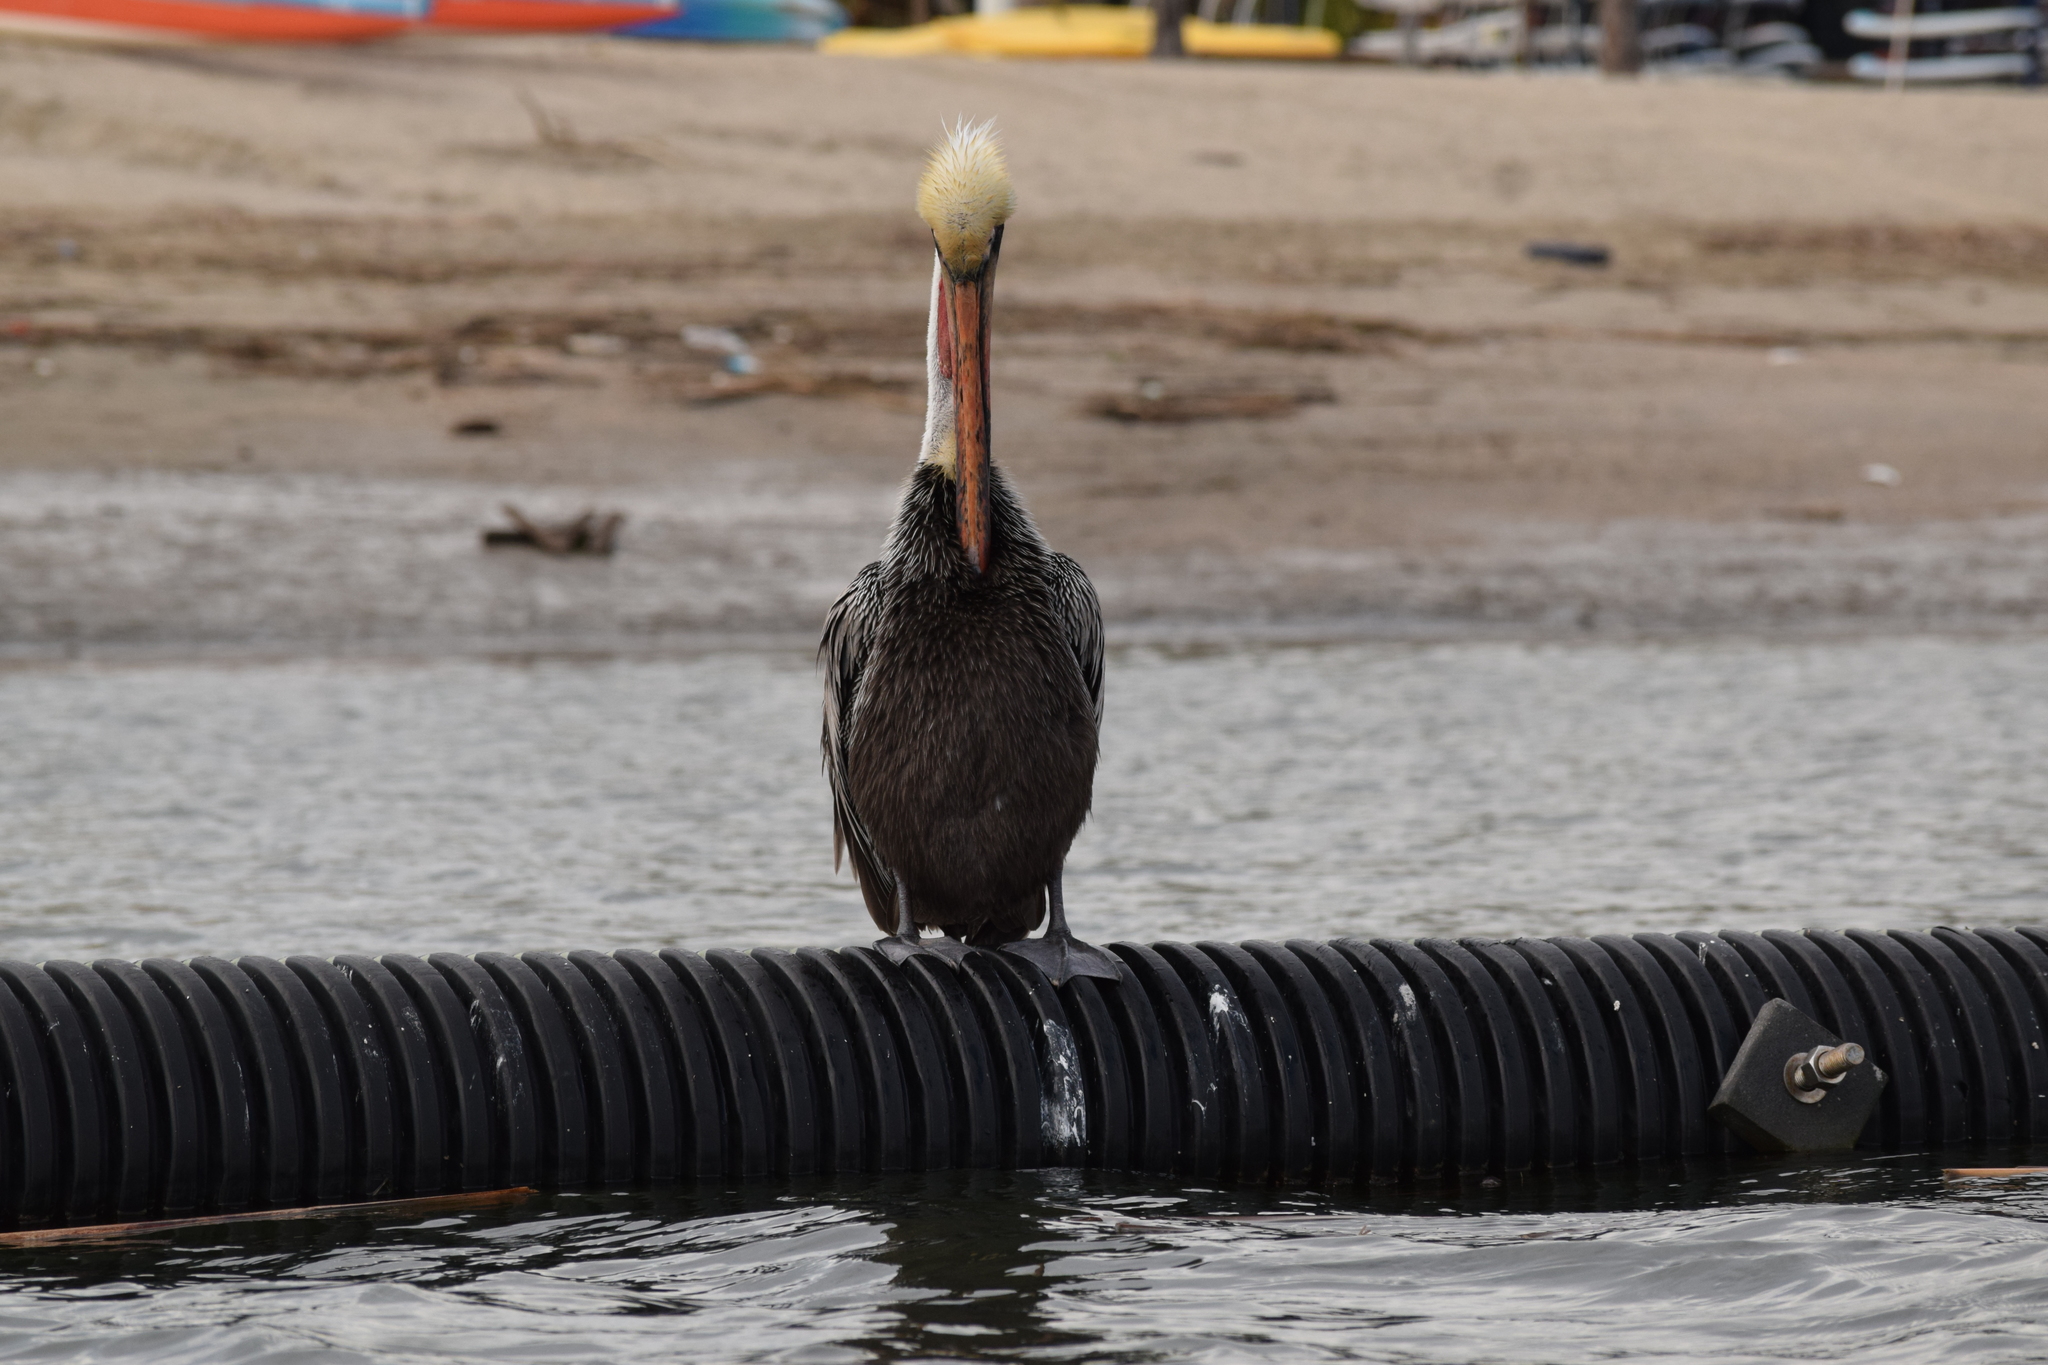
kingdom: Animalia
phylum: Chordata
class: Aves
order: Pelecaniformes
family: Pelecanidae
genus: Pelecanus
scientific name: Pelecanus occidentalis
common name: Brown pelican
